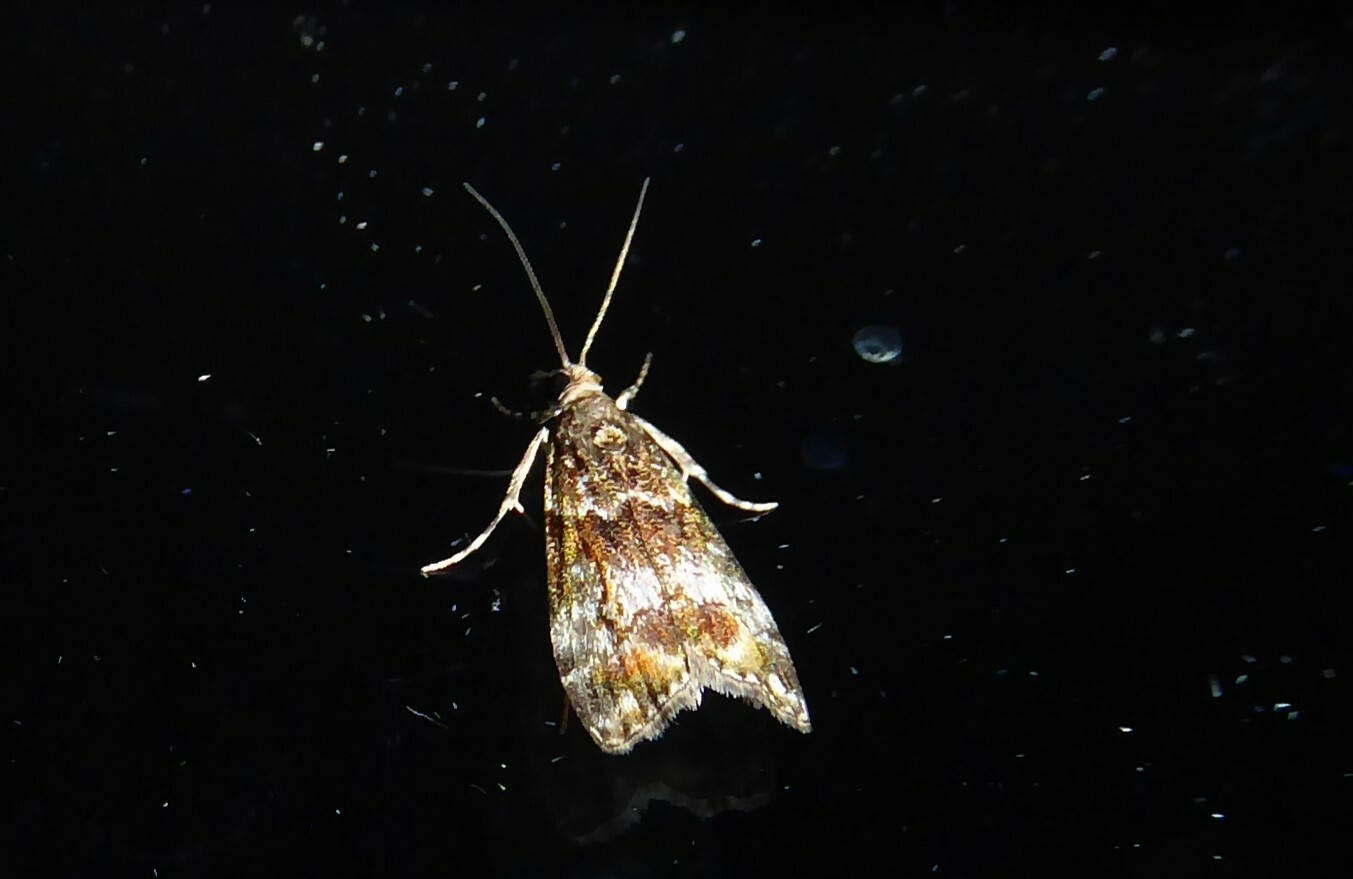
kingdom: Animalia
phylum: Arthropoda
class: Insecta
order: Lepidoptera
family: Crambidae
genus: Eudonia
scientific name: Eudonia minualis
